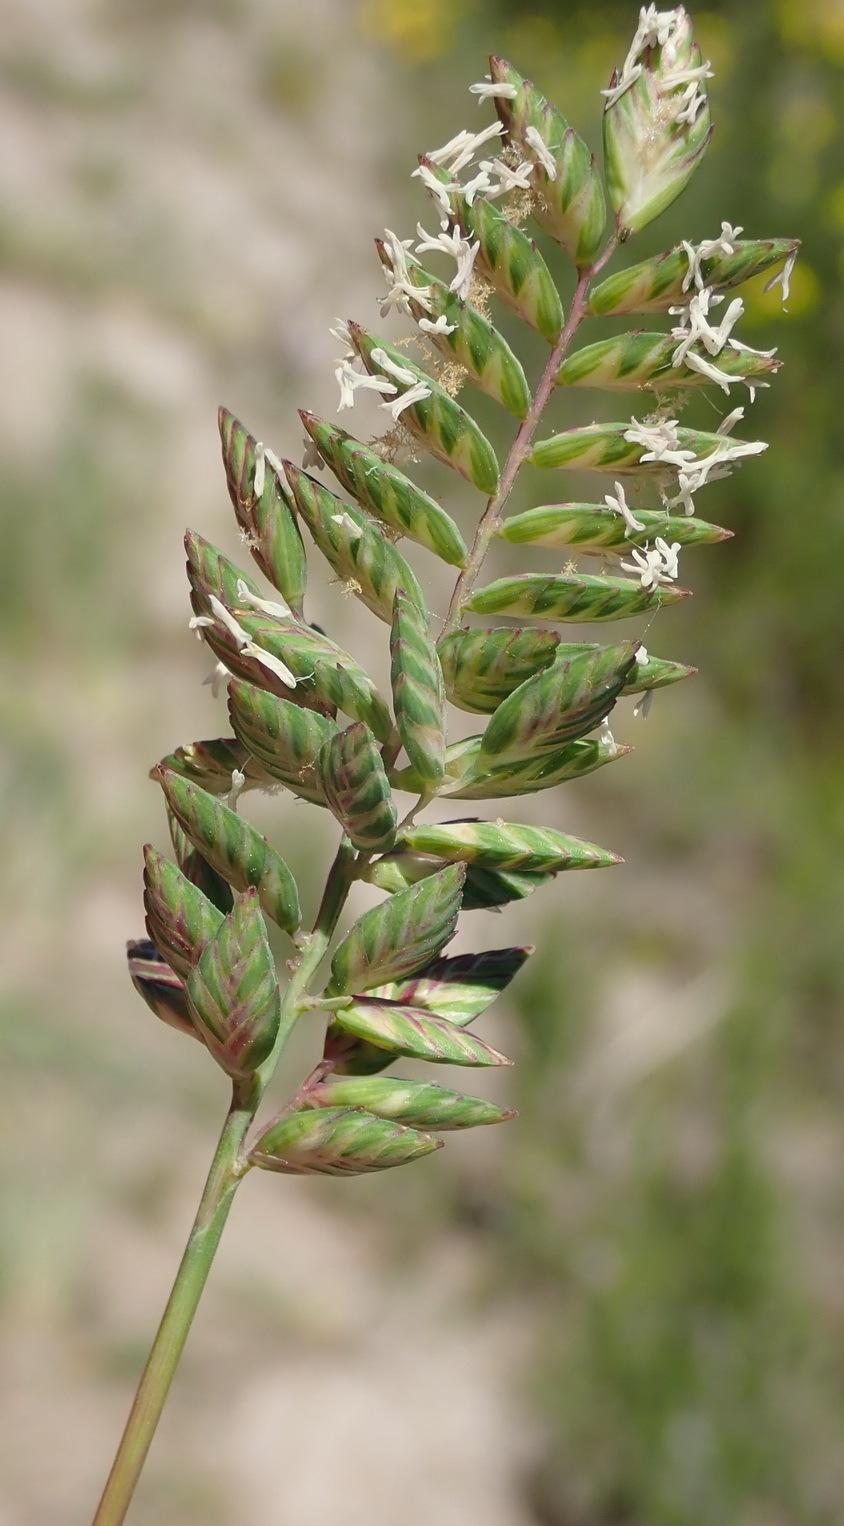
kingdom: Plantae
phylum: Tracheophyta
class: Liliopsida
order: Poales
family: Poaceae
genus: Tribolium
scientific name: Tribolium uniolae
